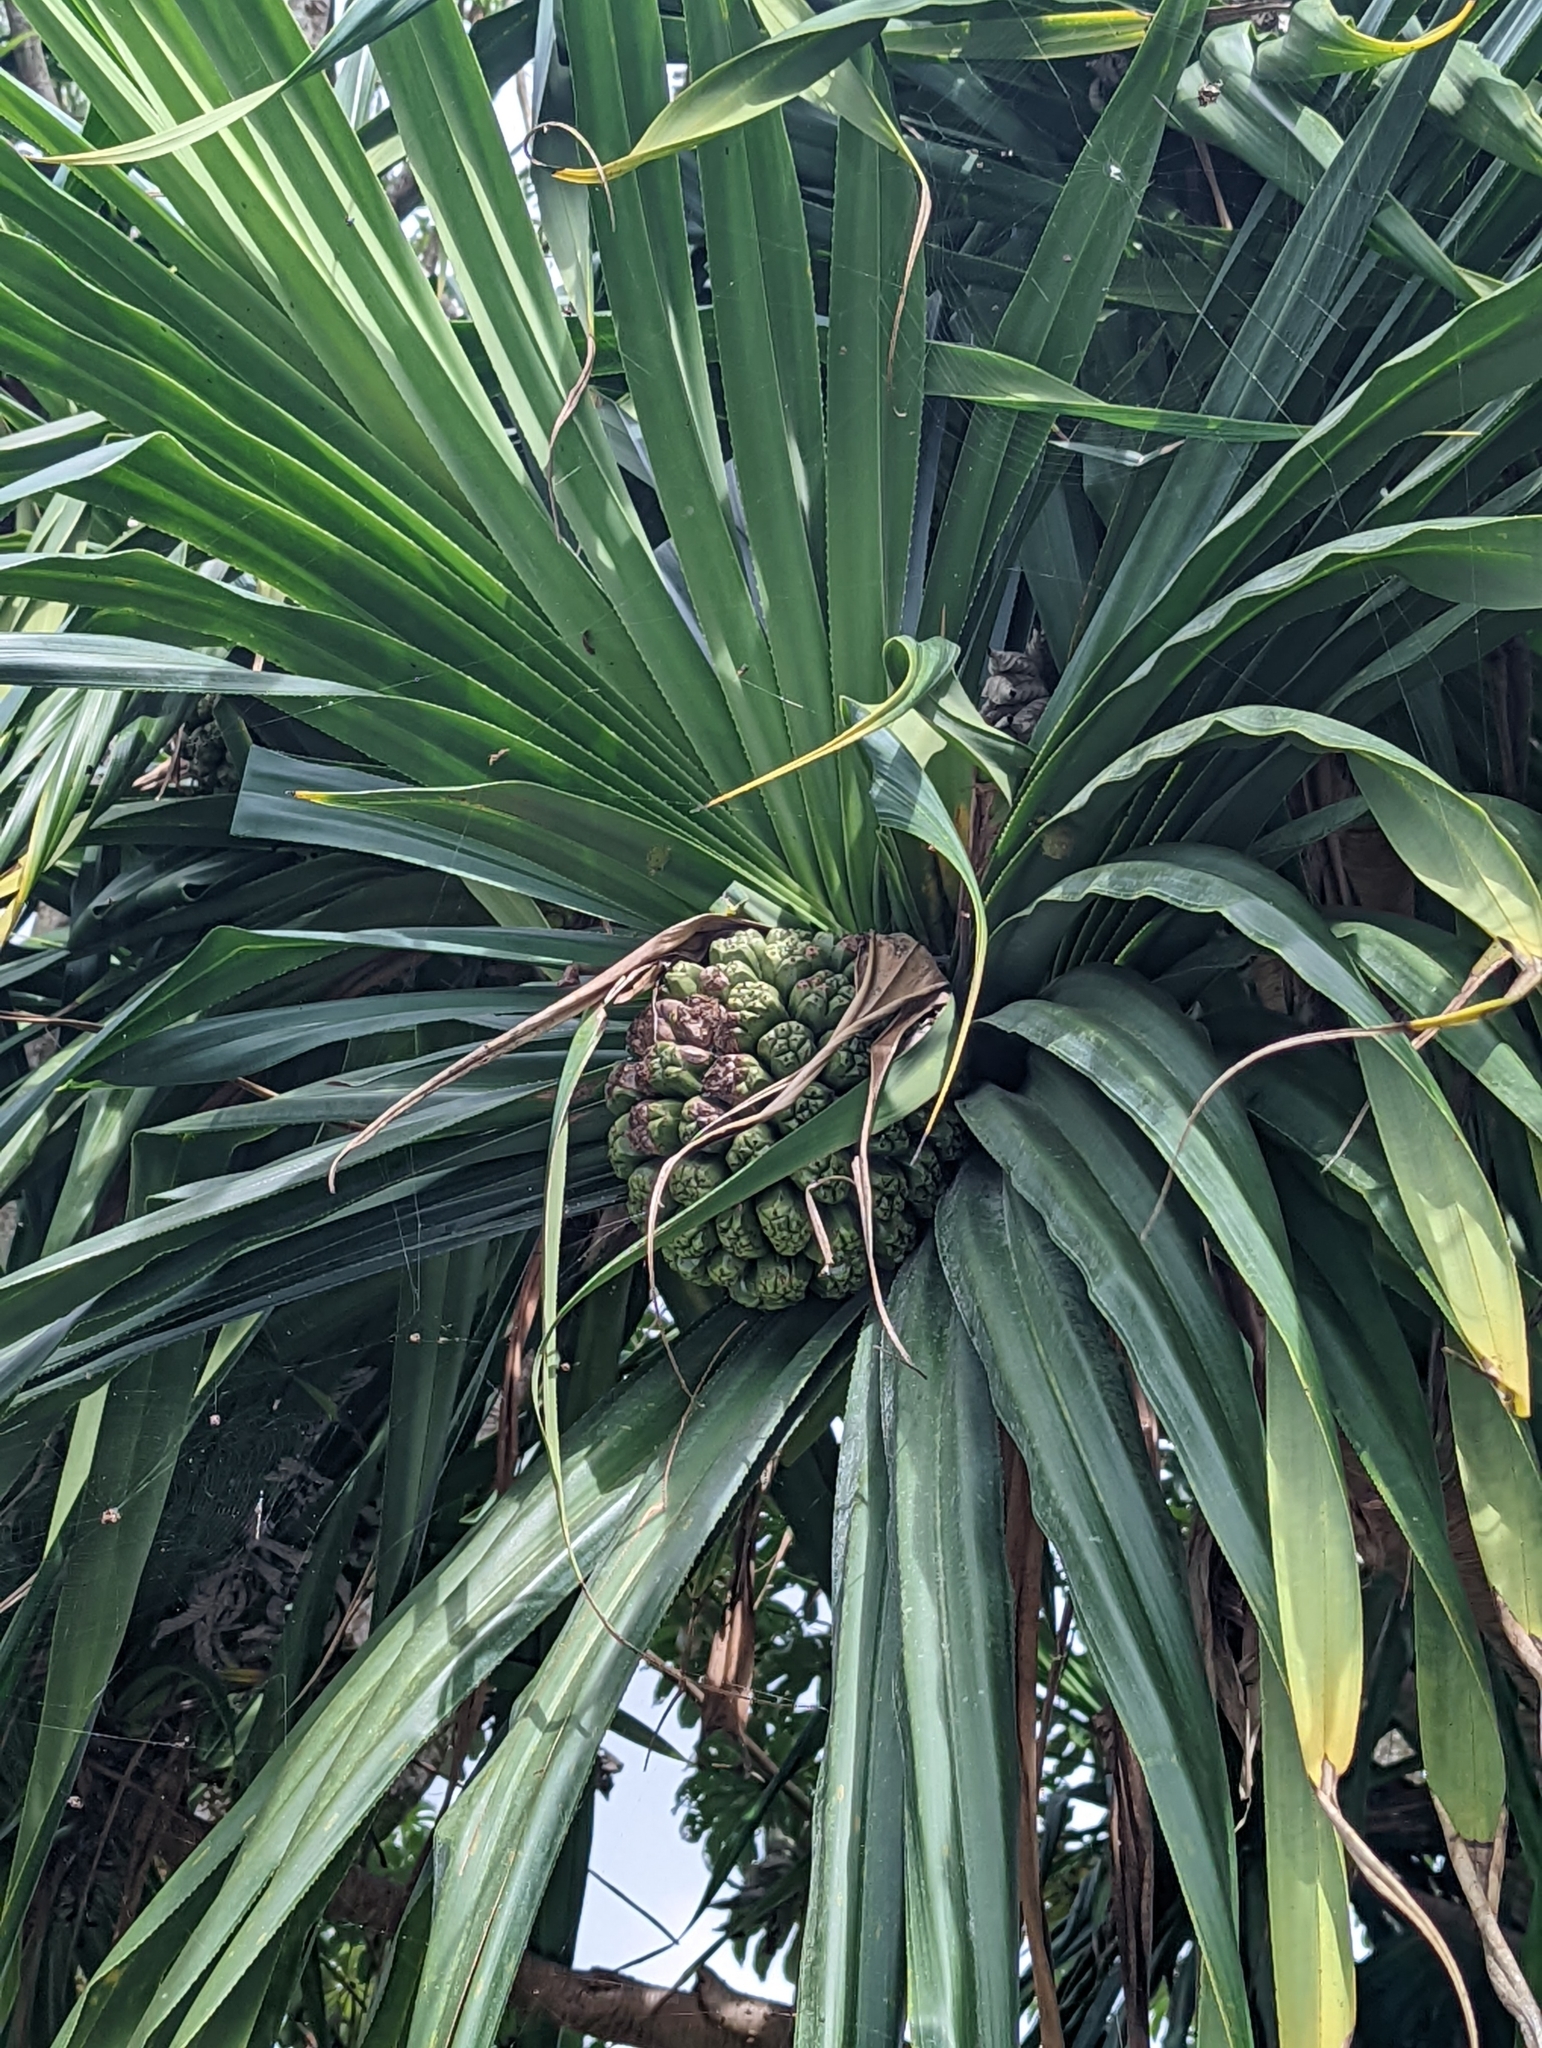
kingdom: Plantae
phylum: Tracheophyta
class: Liliopsida
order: Pandanales
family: Pandanaceae
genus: Pandanus
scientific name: Pandanus tectorius
